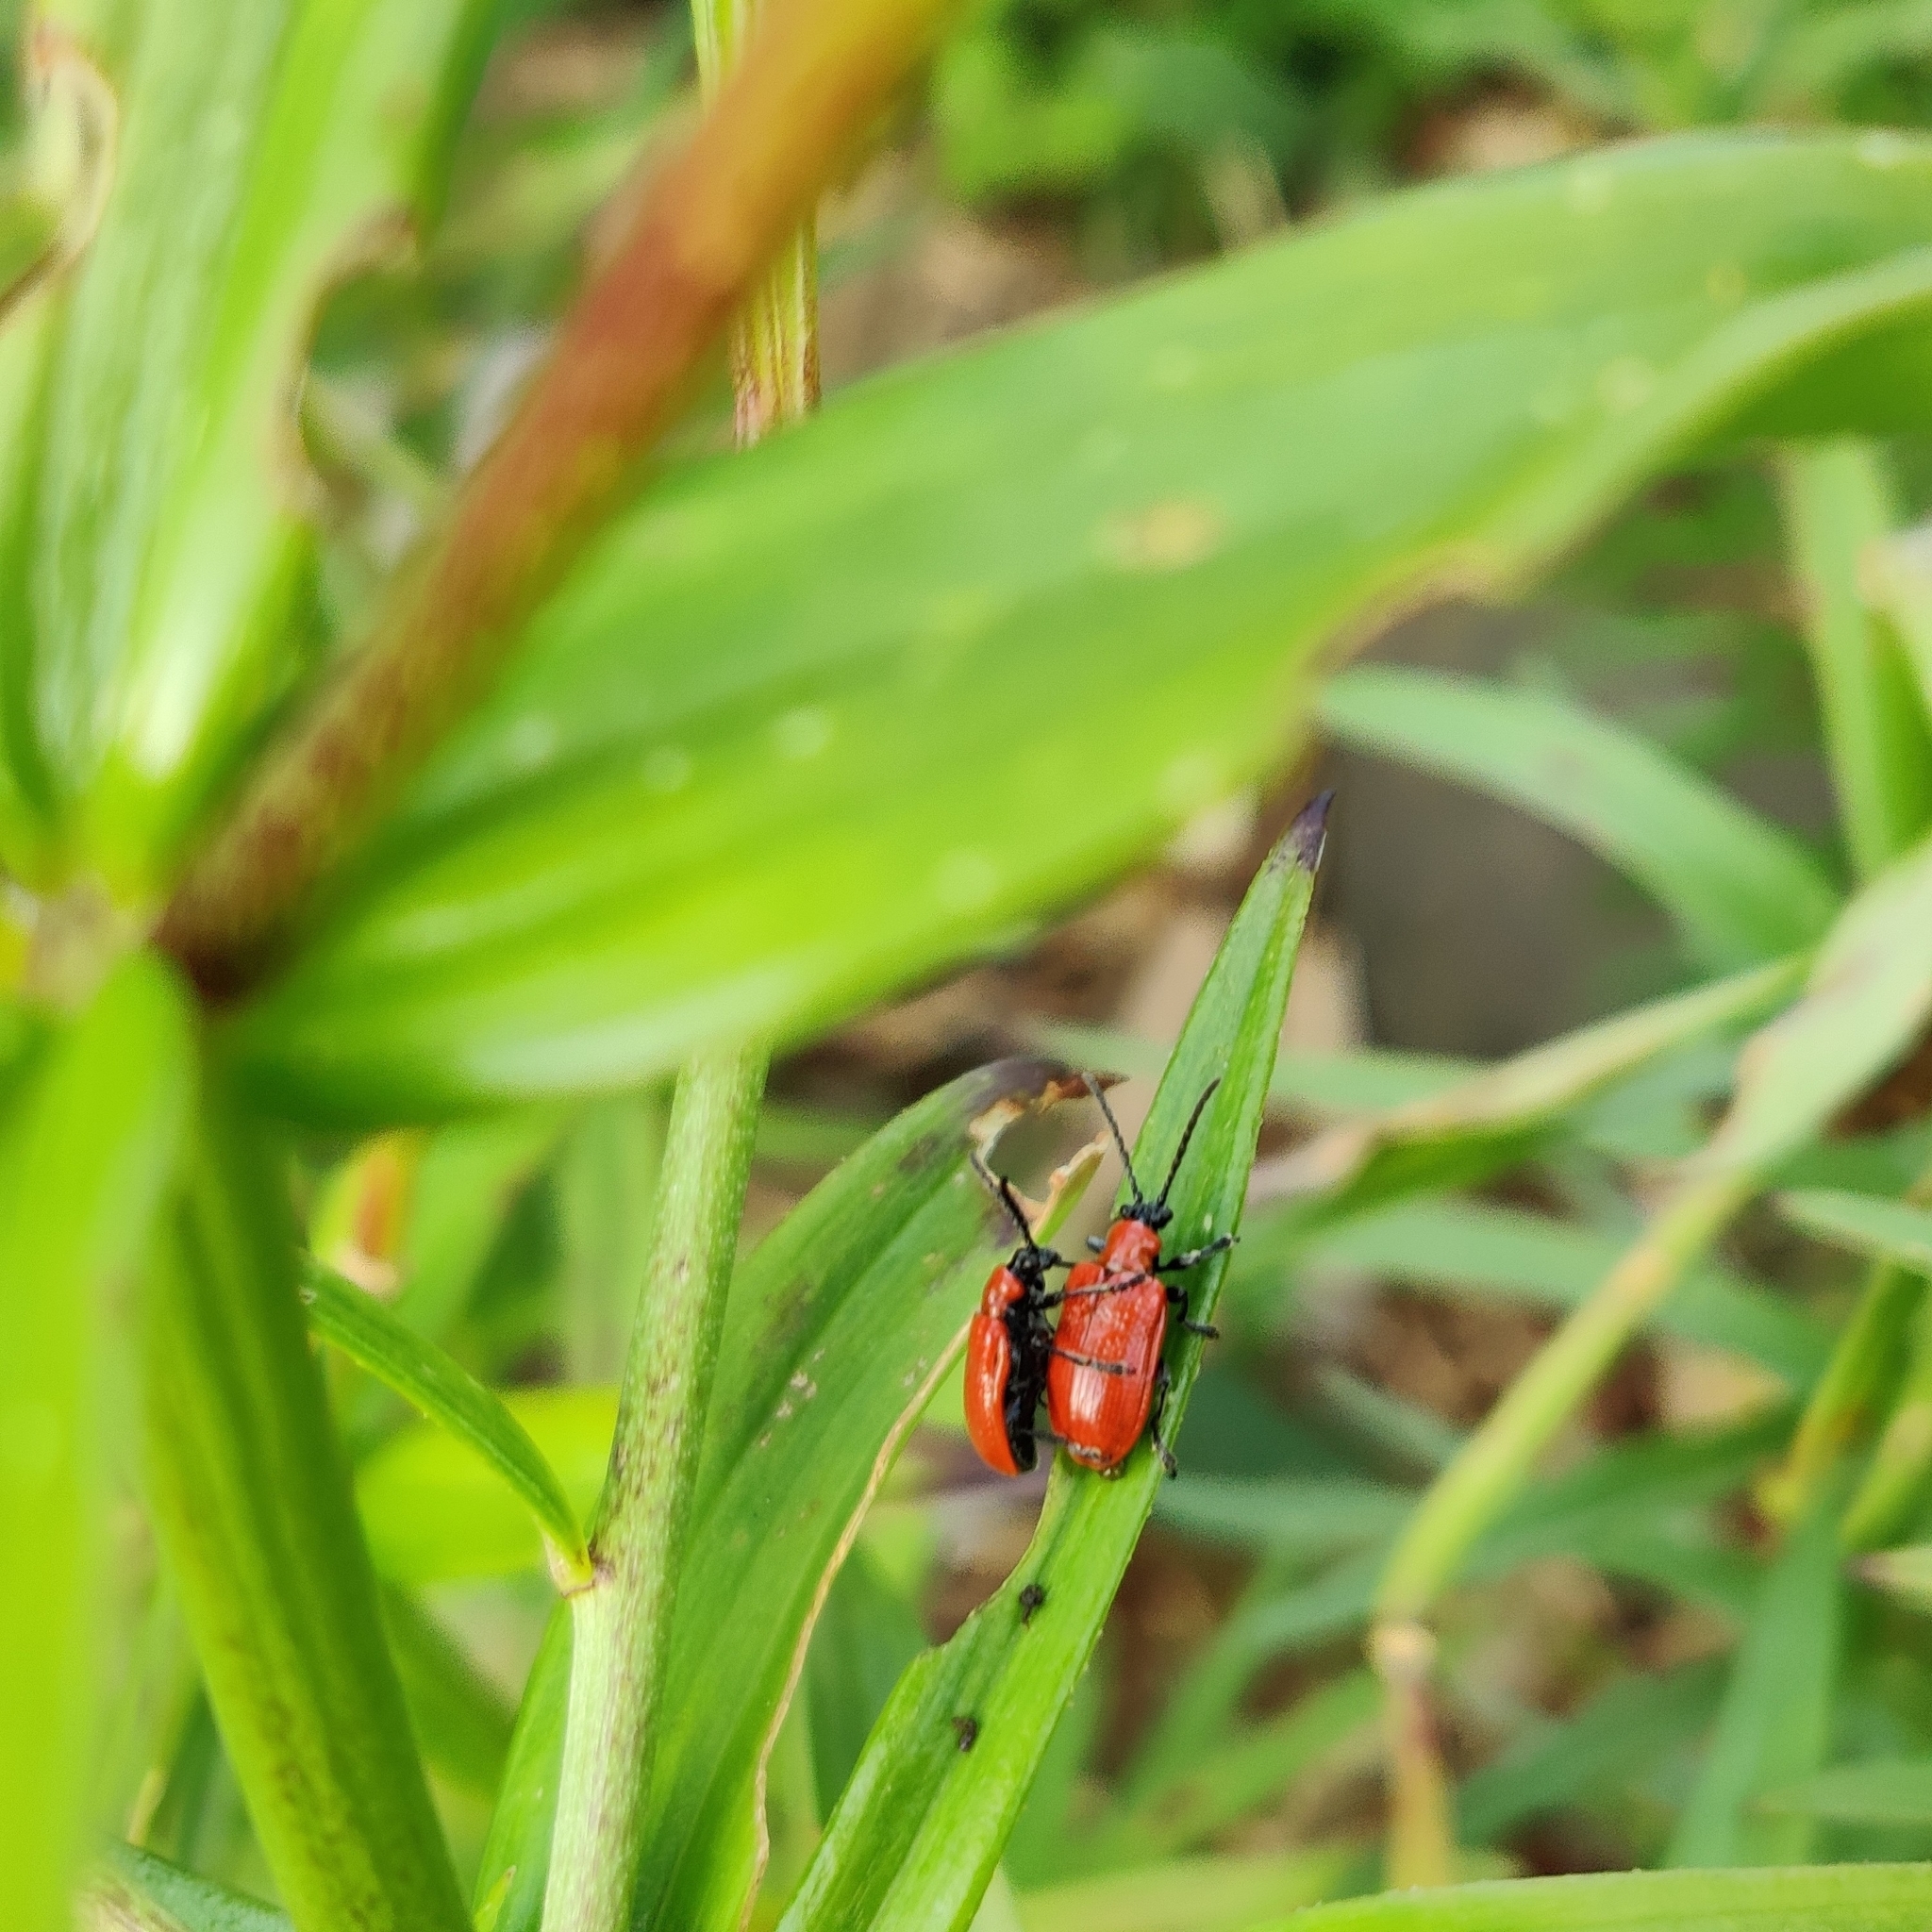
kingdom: Animalia
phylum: Arthropoda
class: Insecta
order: Coleoptera
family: Chrysomelidae
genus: Lilioceris
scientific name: Lilioceris lilii
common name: Lily beetle
